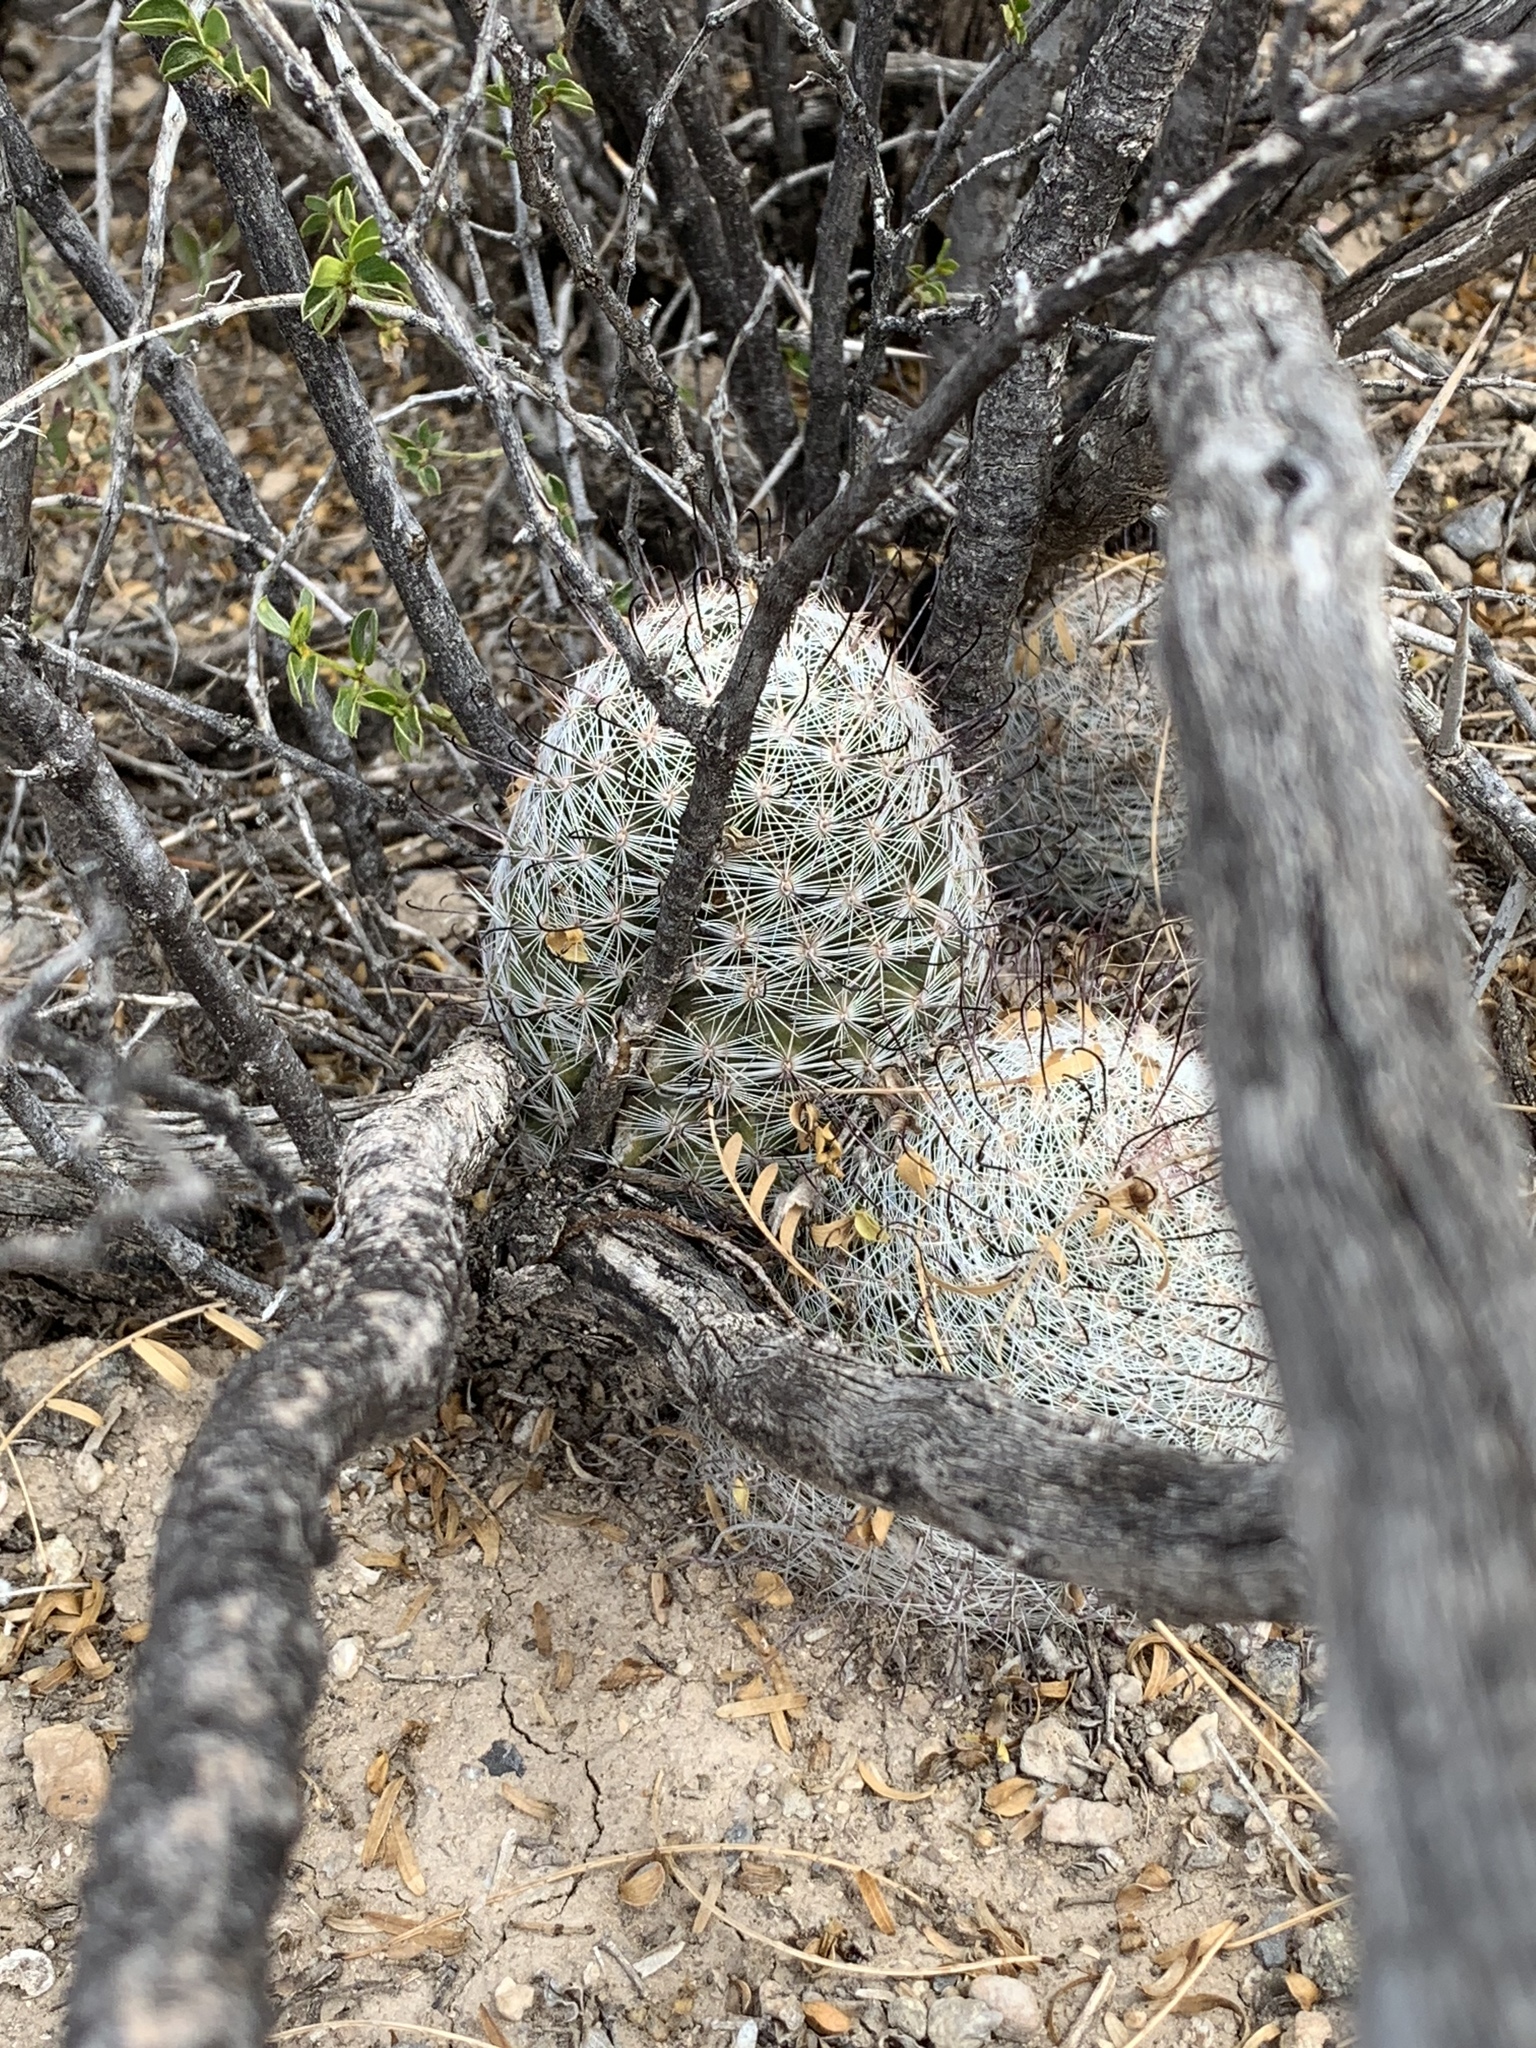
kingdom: Plantae
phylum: Tracheophyta
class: Magnoliopsida
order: Caryophyllales
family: Cactaceae
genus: Cochemiea
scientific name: Cochemiea grahamii
